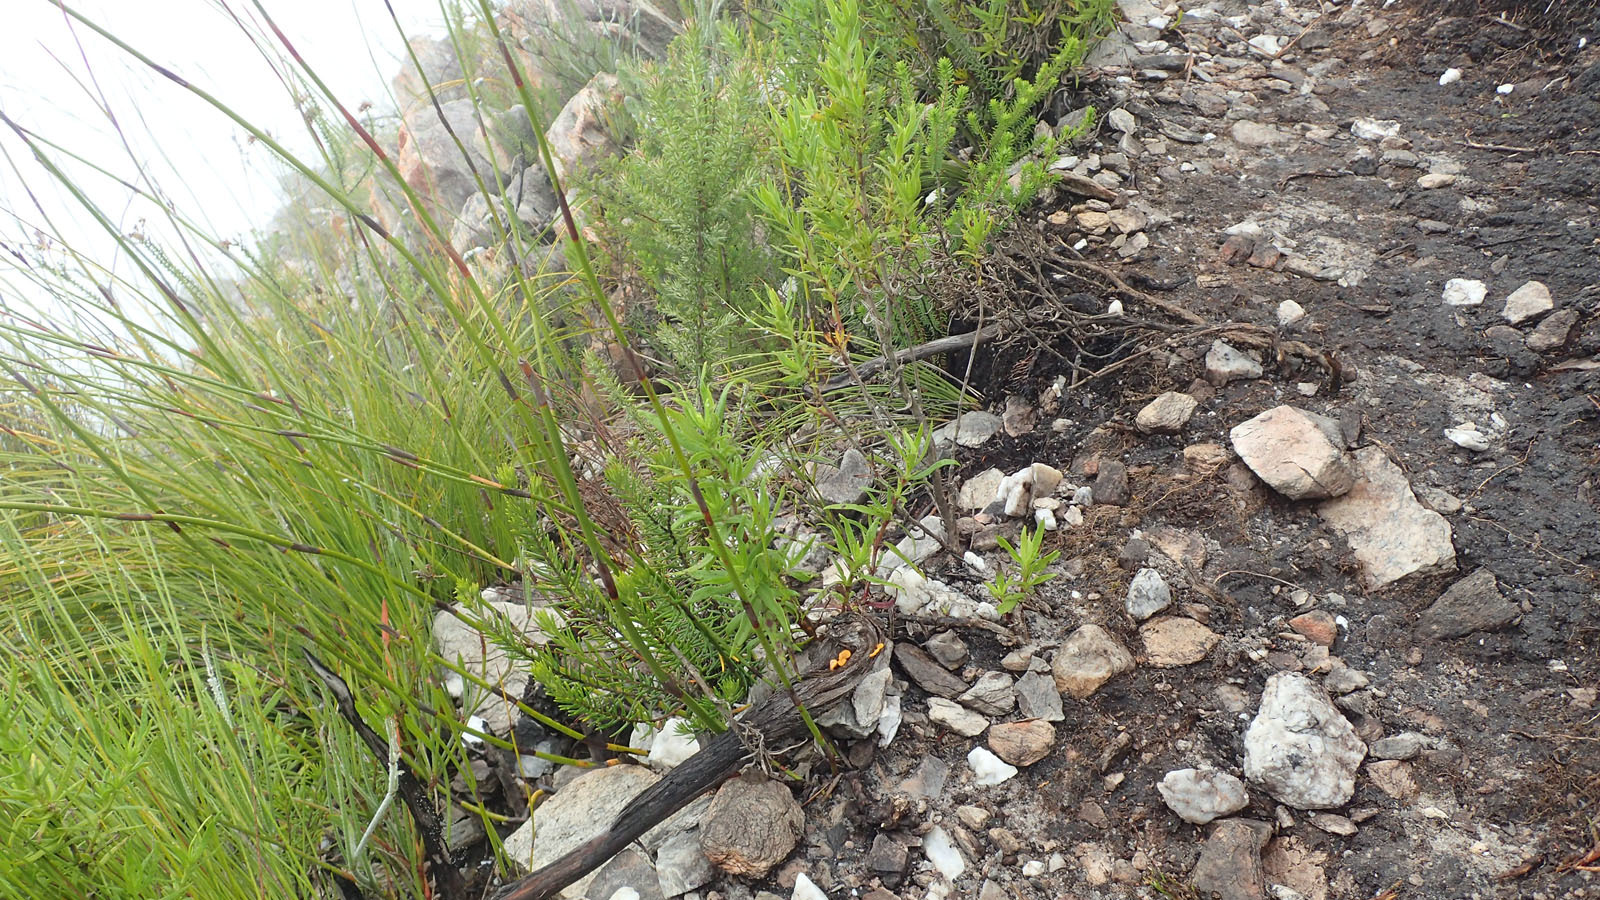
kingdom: Fungi
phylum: Basidiomycota
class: Dacrymycetes
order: Dacrymycetales
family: Dacrymycetaceae
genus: Dacrymyces
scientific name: Dacrymyces spathularius
